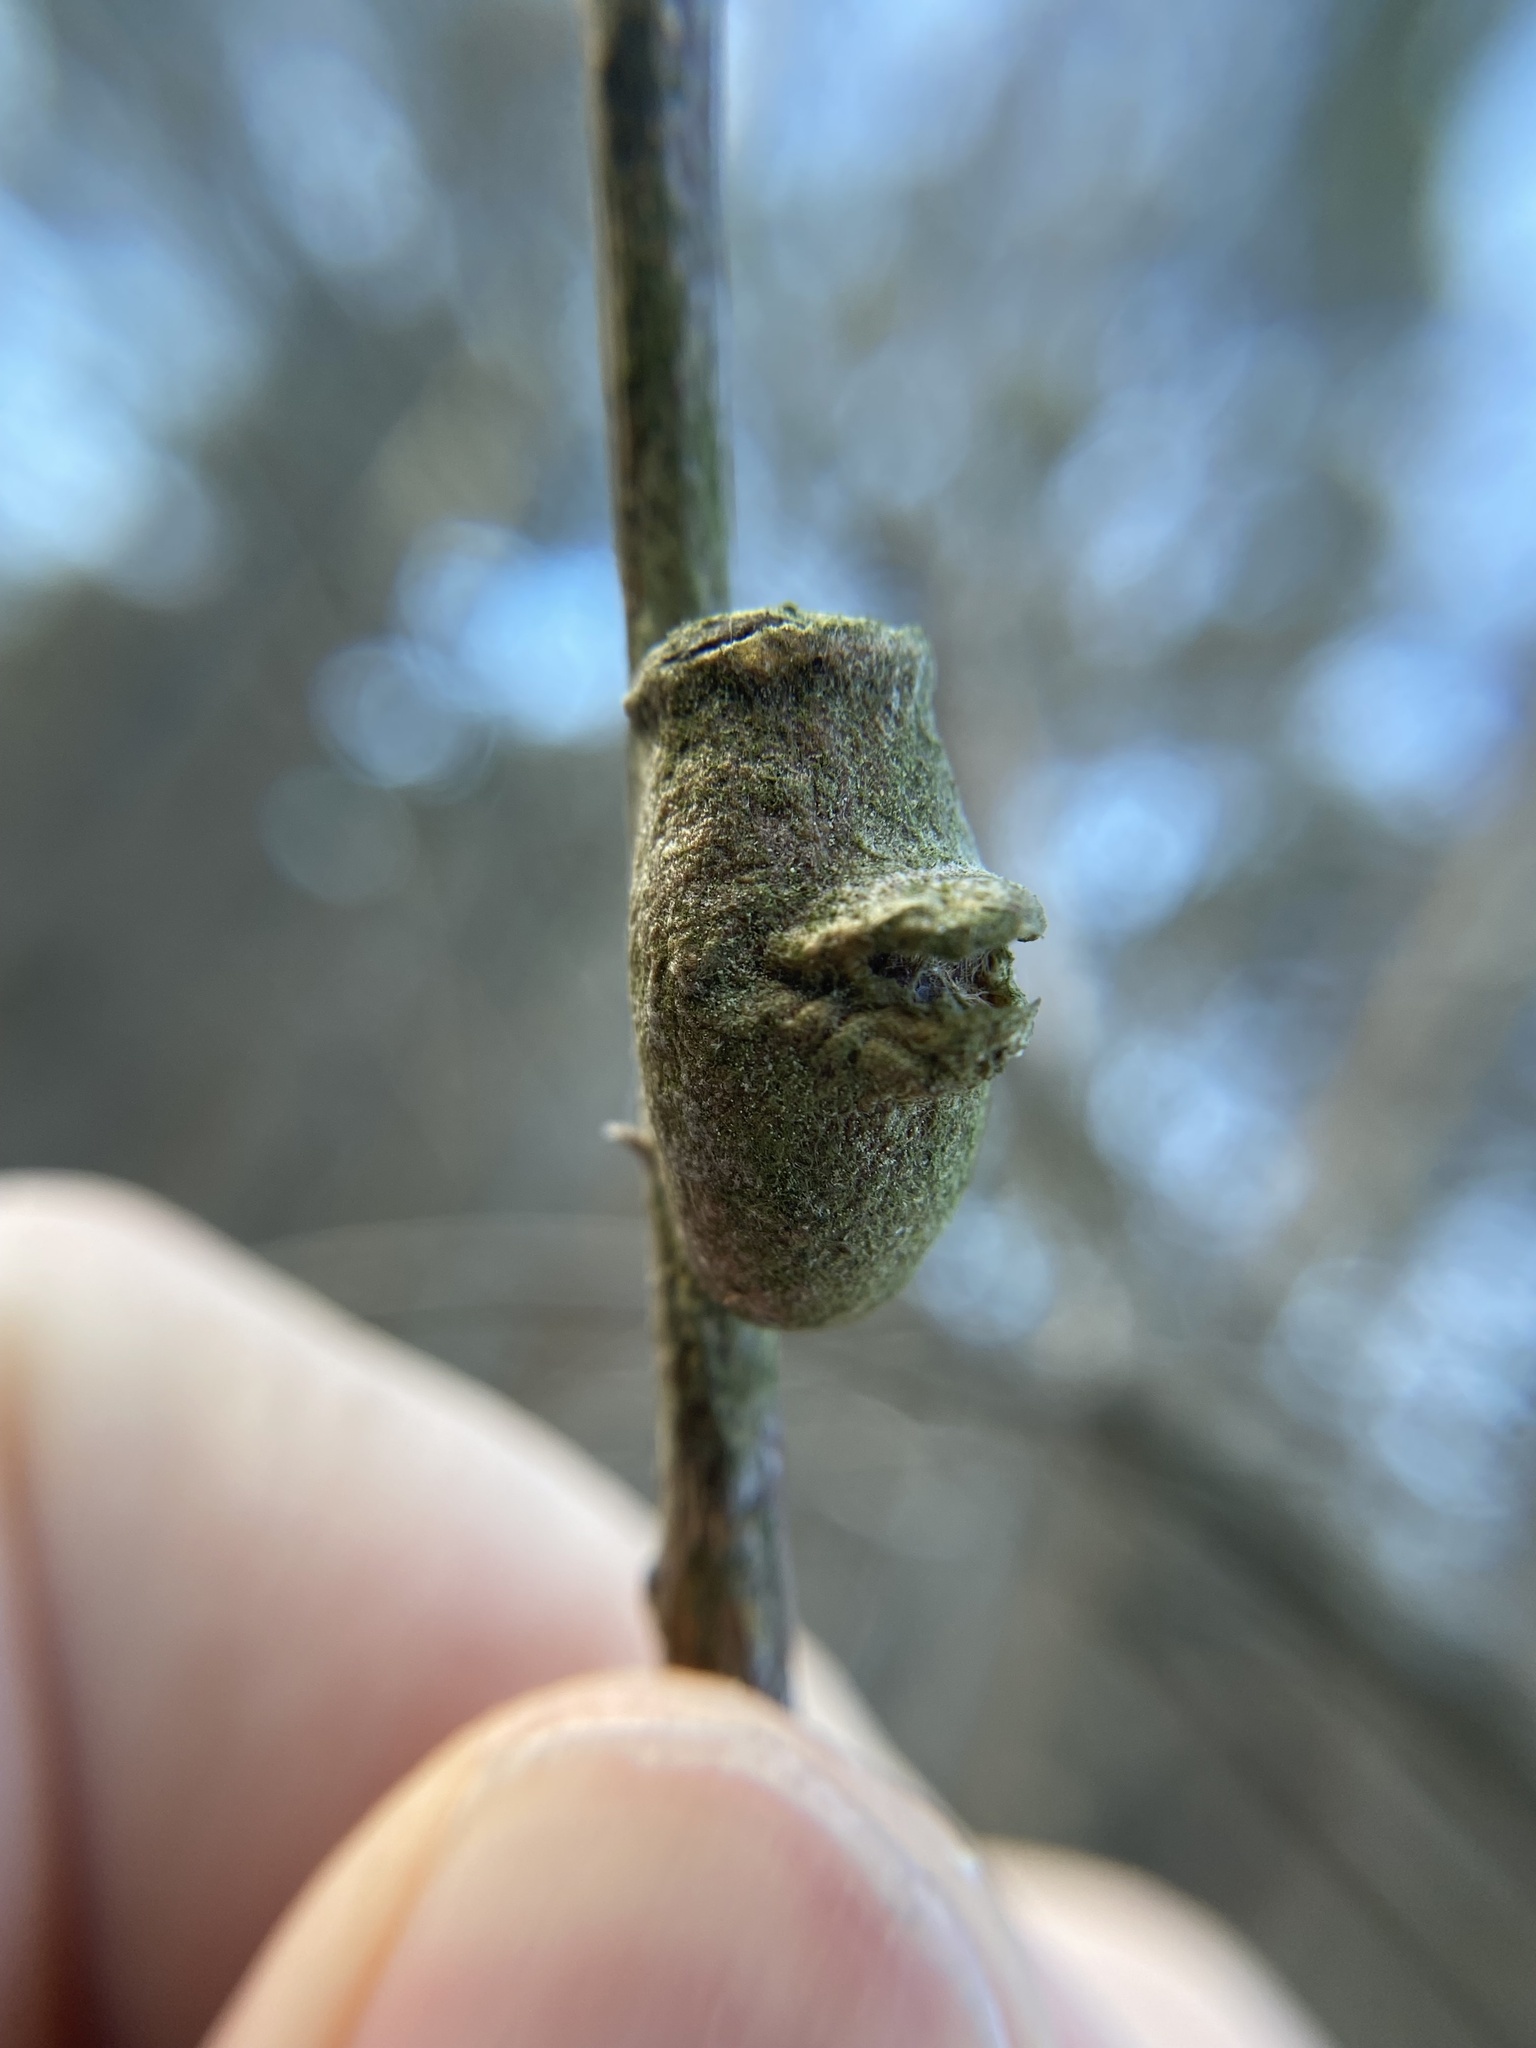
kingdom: Animalia
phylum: Arthropoda
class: Insecta
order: Lepidoptera
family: Megalopygidae
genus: Megalopyge
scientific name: Megalopyge
